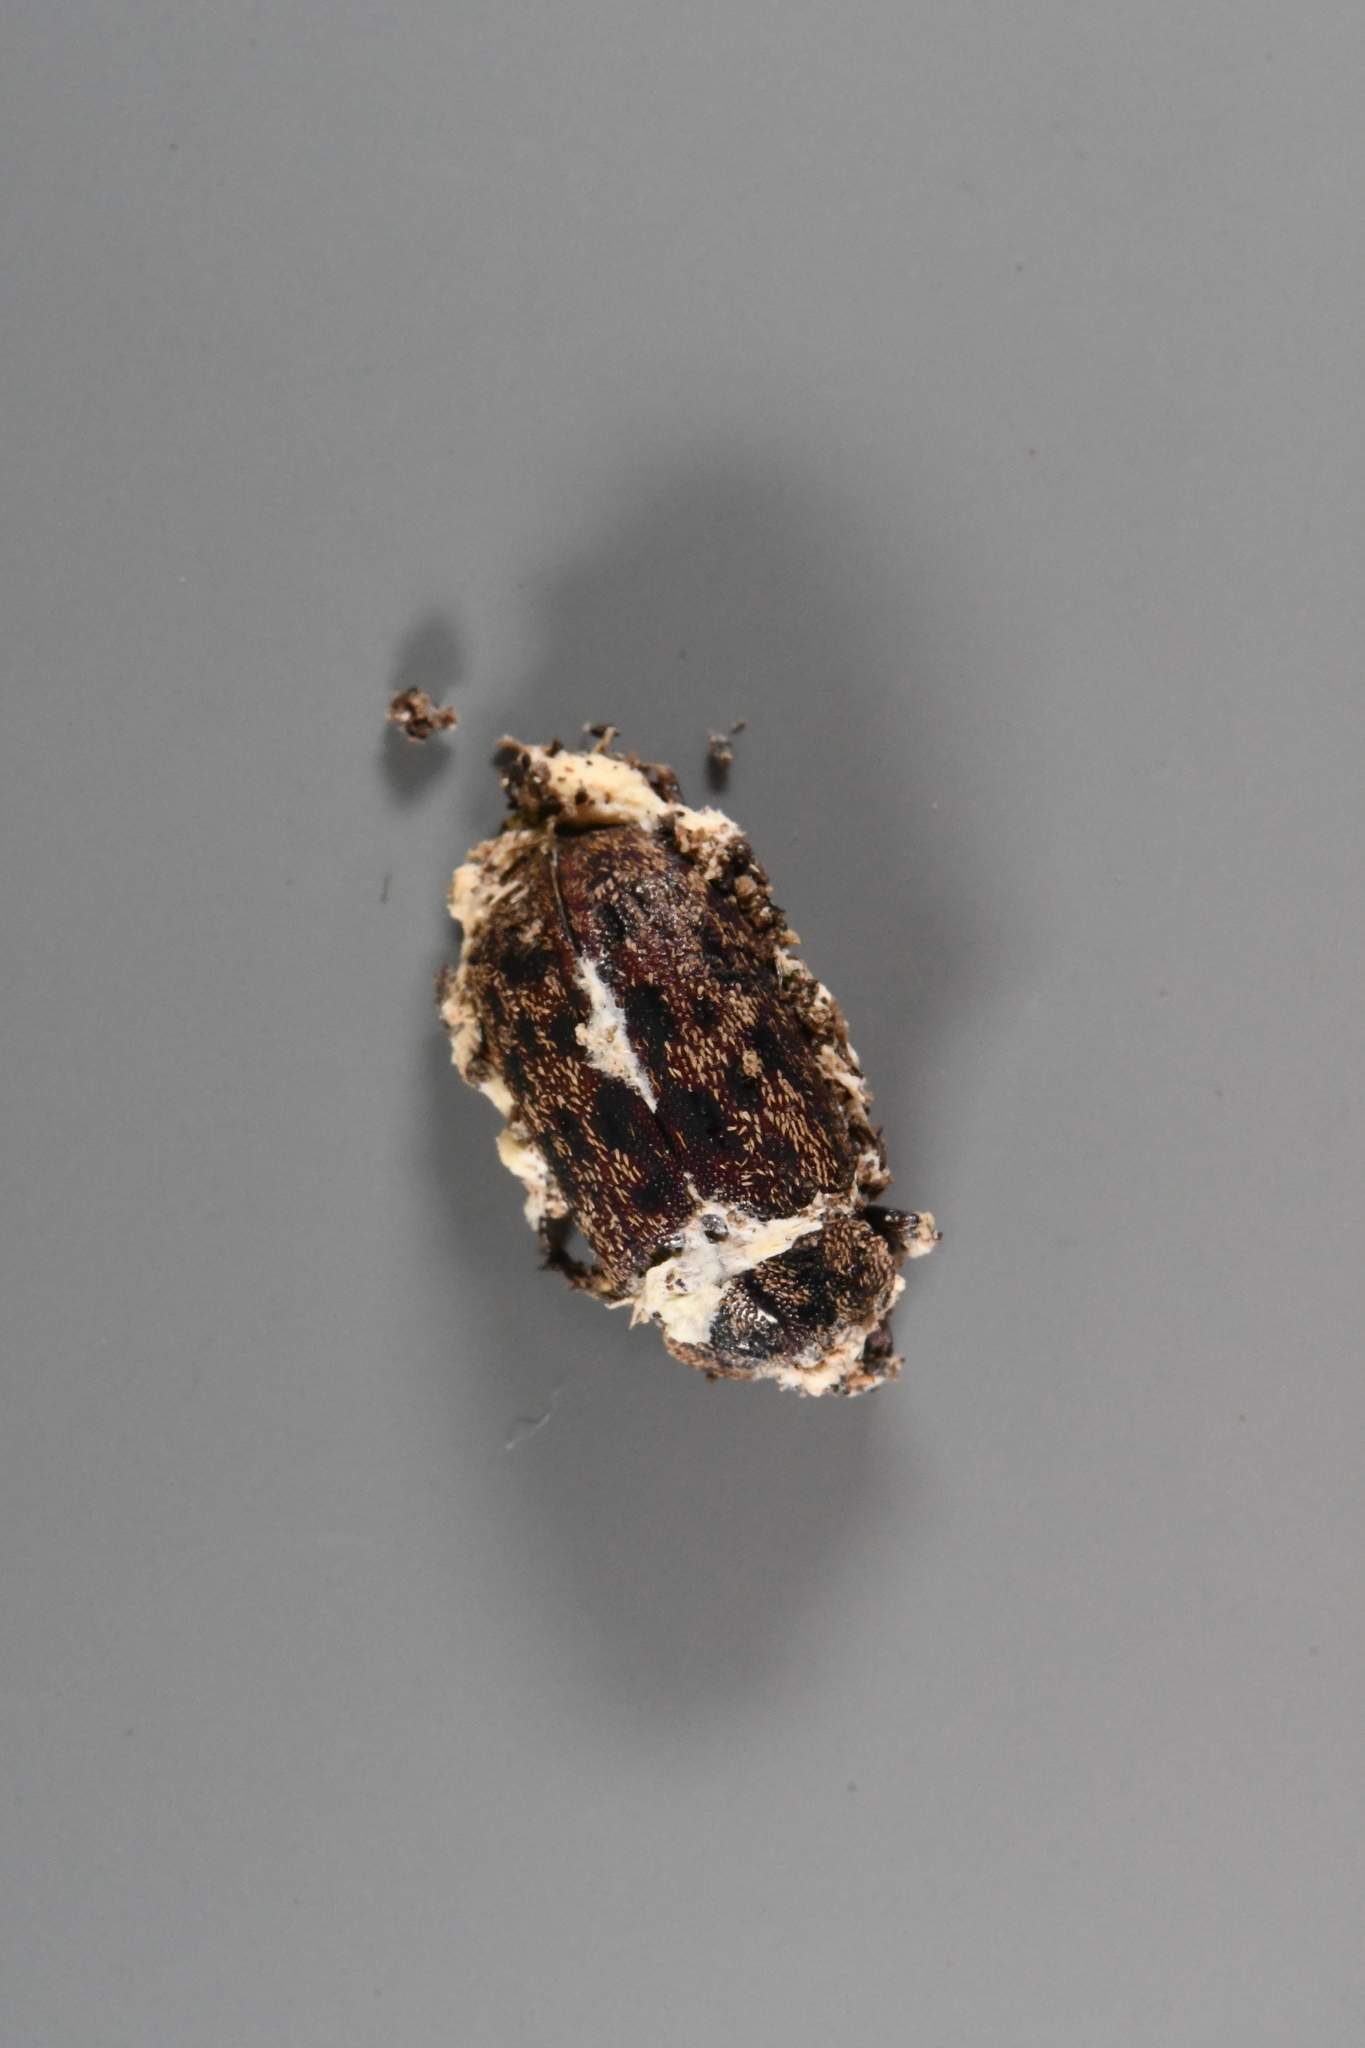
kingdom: Animalia
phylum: Arthropoda
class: Insecta
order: Coleoptera
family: Lucanidae
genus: Mitophyllus
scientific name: Mitophyllus parrianus
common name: Parry's stag beetle
